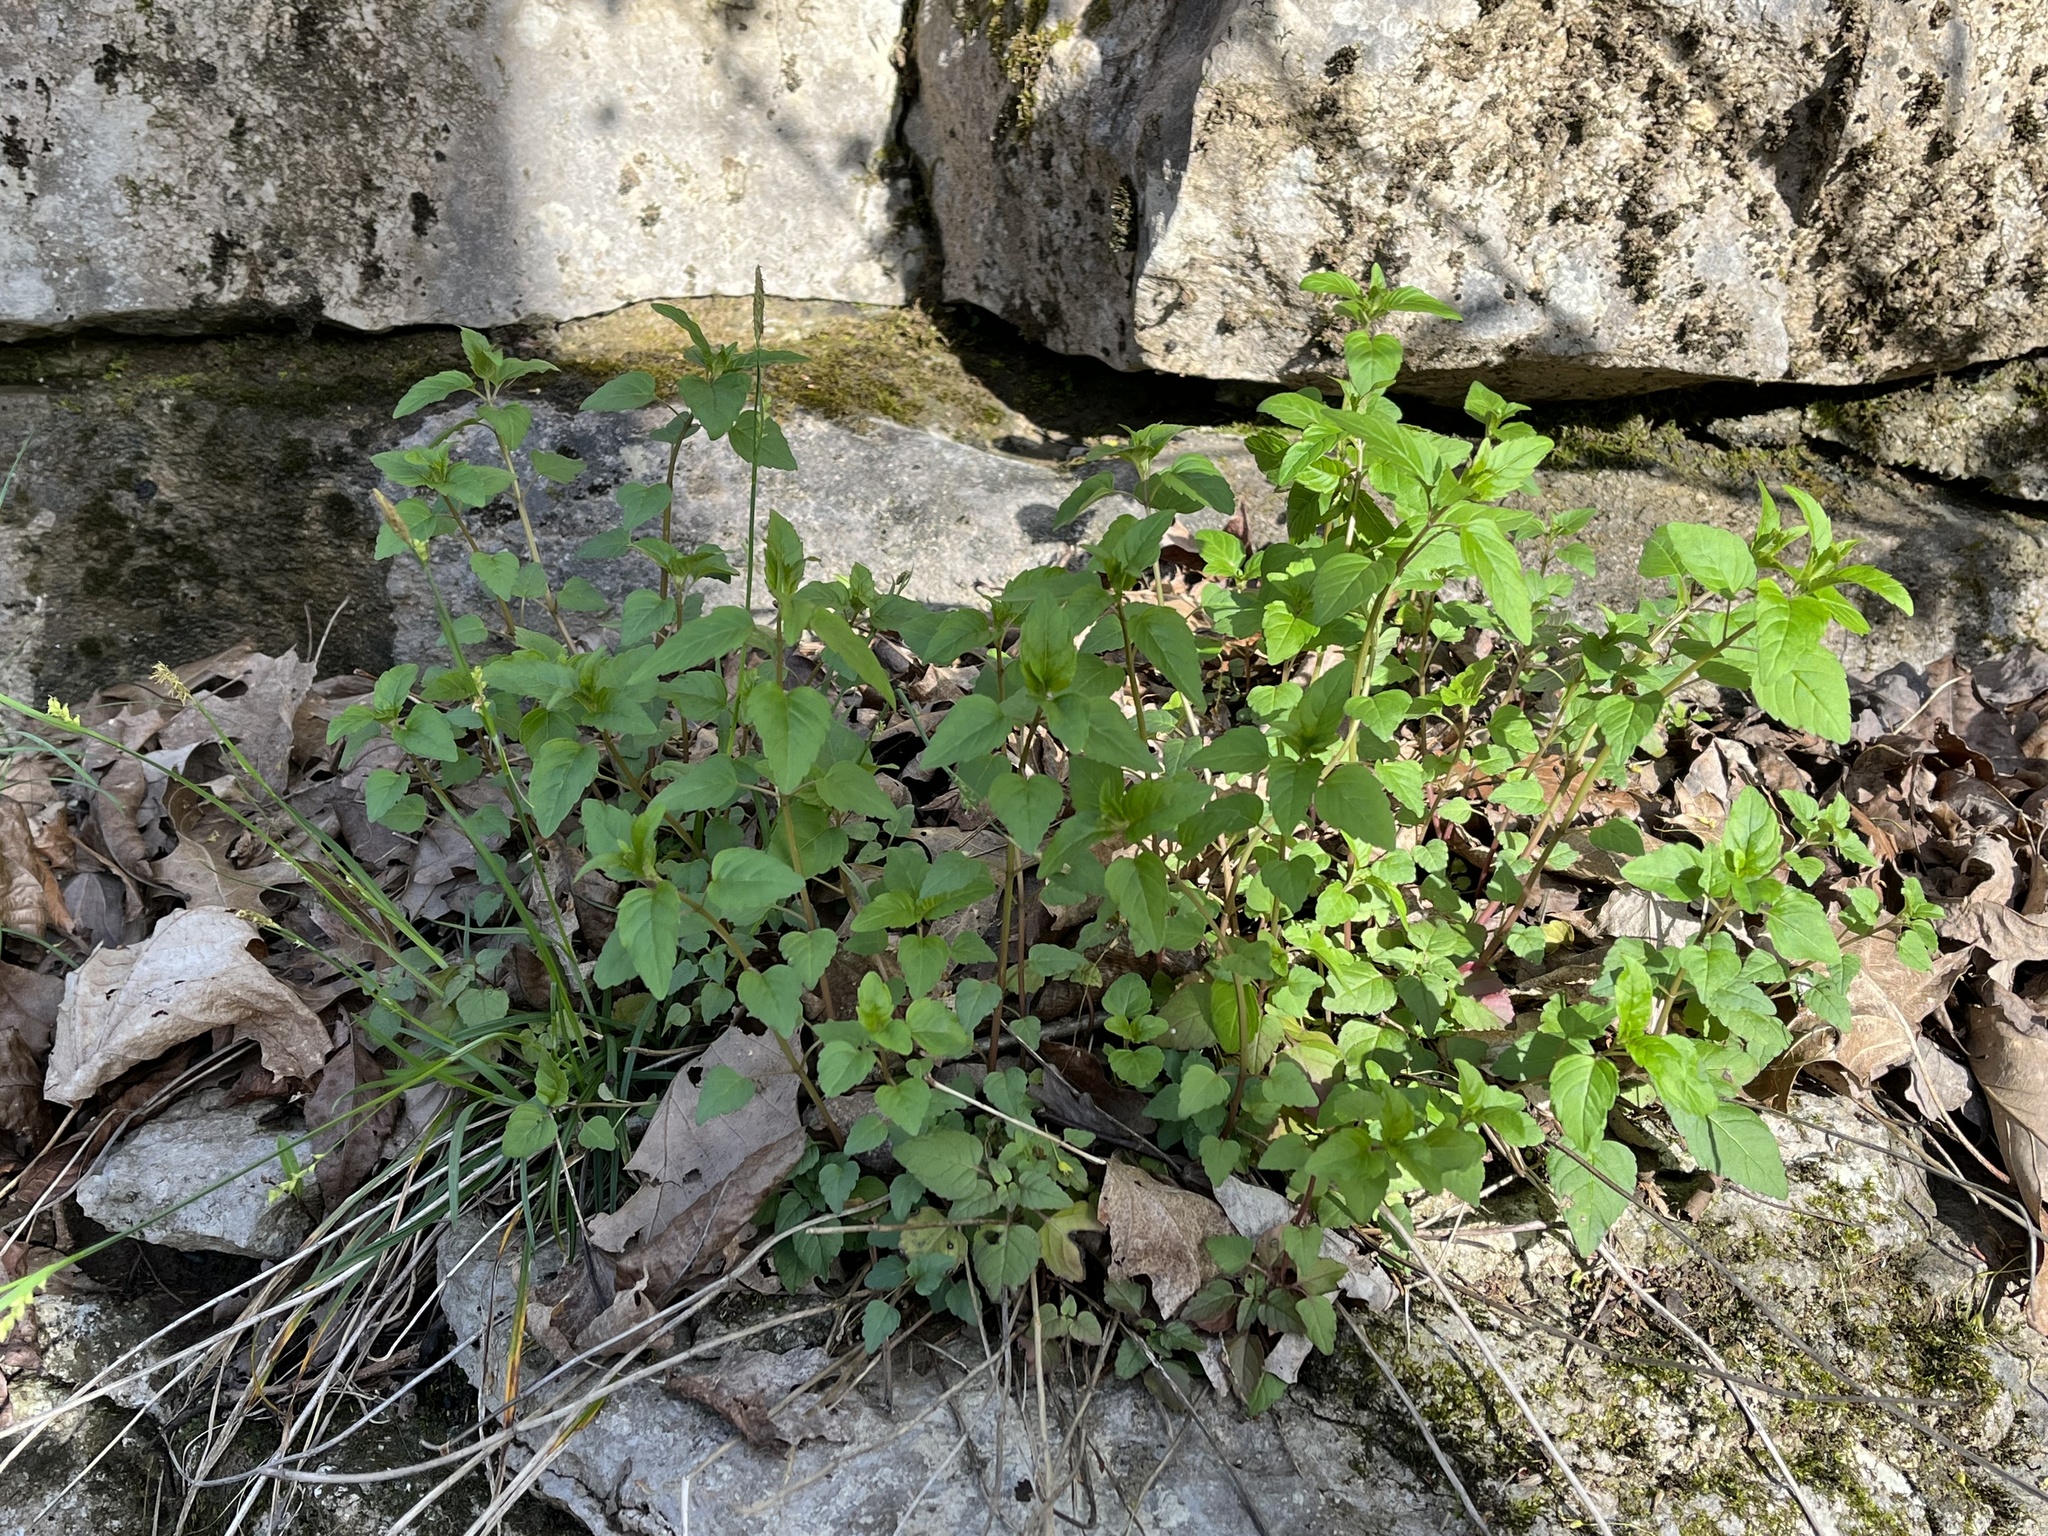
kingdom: Plantae
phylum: Tracheophyta
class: Magnoliopsida
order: Lamiales
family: Lamiaceae
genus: Blephilia
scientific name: Blephilia subnuda
